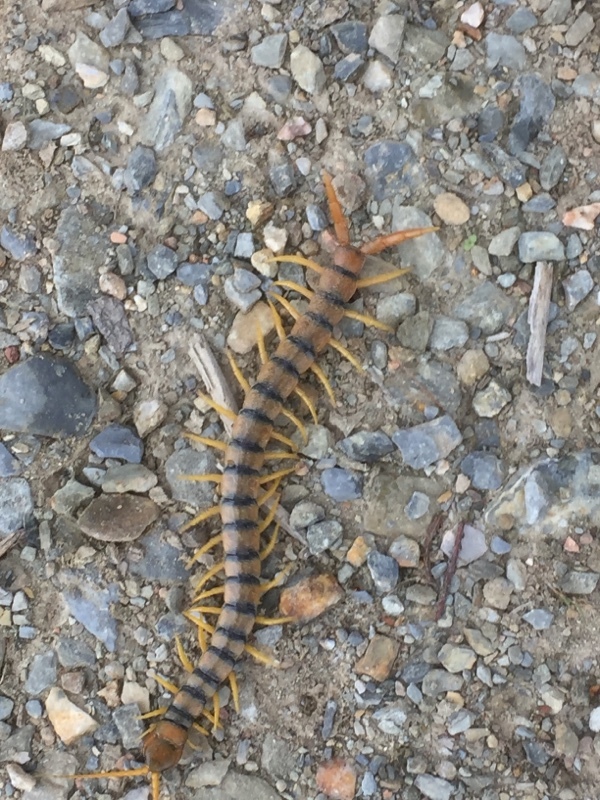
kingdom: Animalia
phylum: Arthropoda
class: Chilopoda
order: Scolopendromorpha
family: Scolopendridae
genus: Scolopendra
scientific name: Scolopendra cingulata
